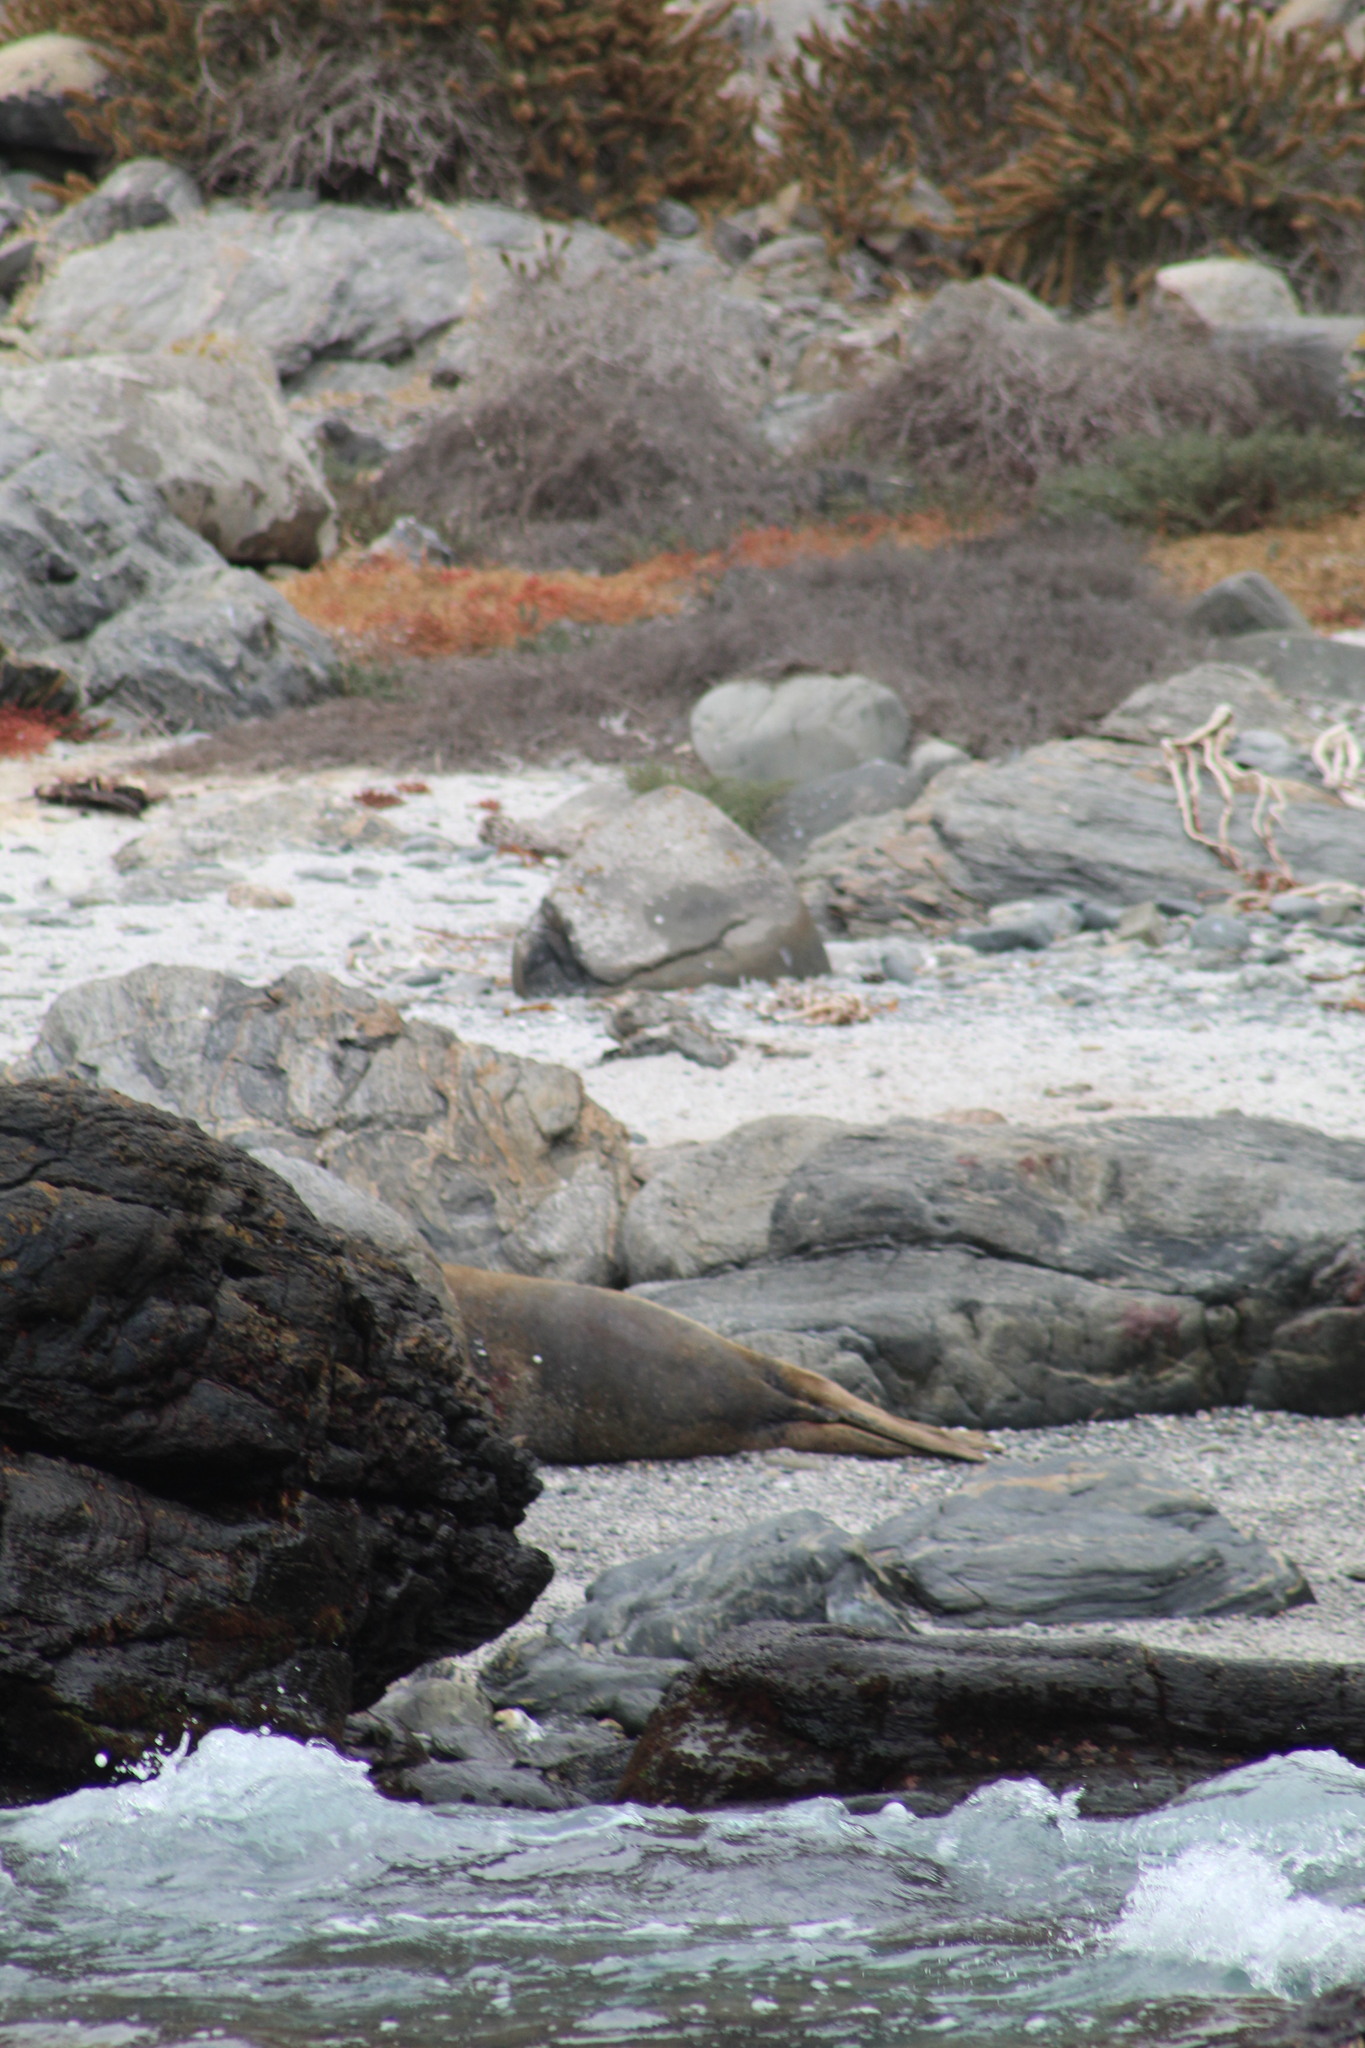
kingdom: Animalia
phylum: Chordata
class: Mammalia
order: Carnivora
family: Phocidae
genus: Mirounga
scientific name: Mirounga leonina
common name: Southern elephant seal
